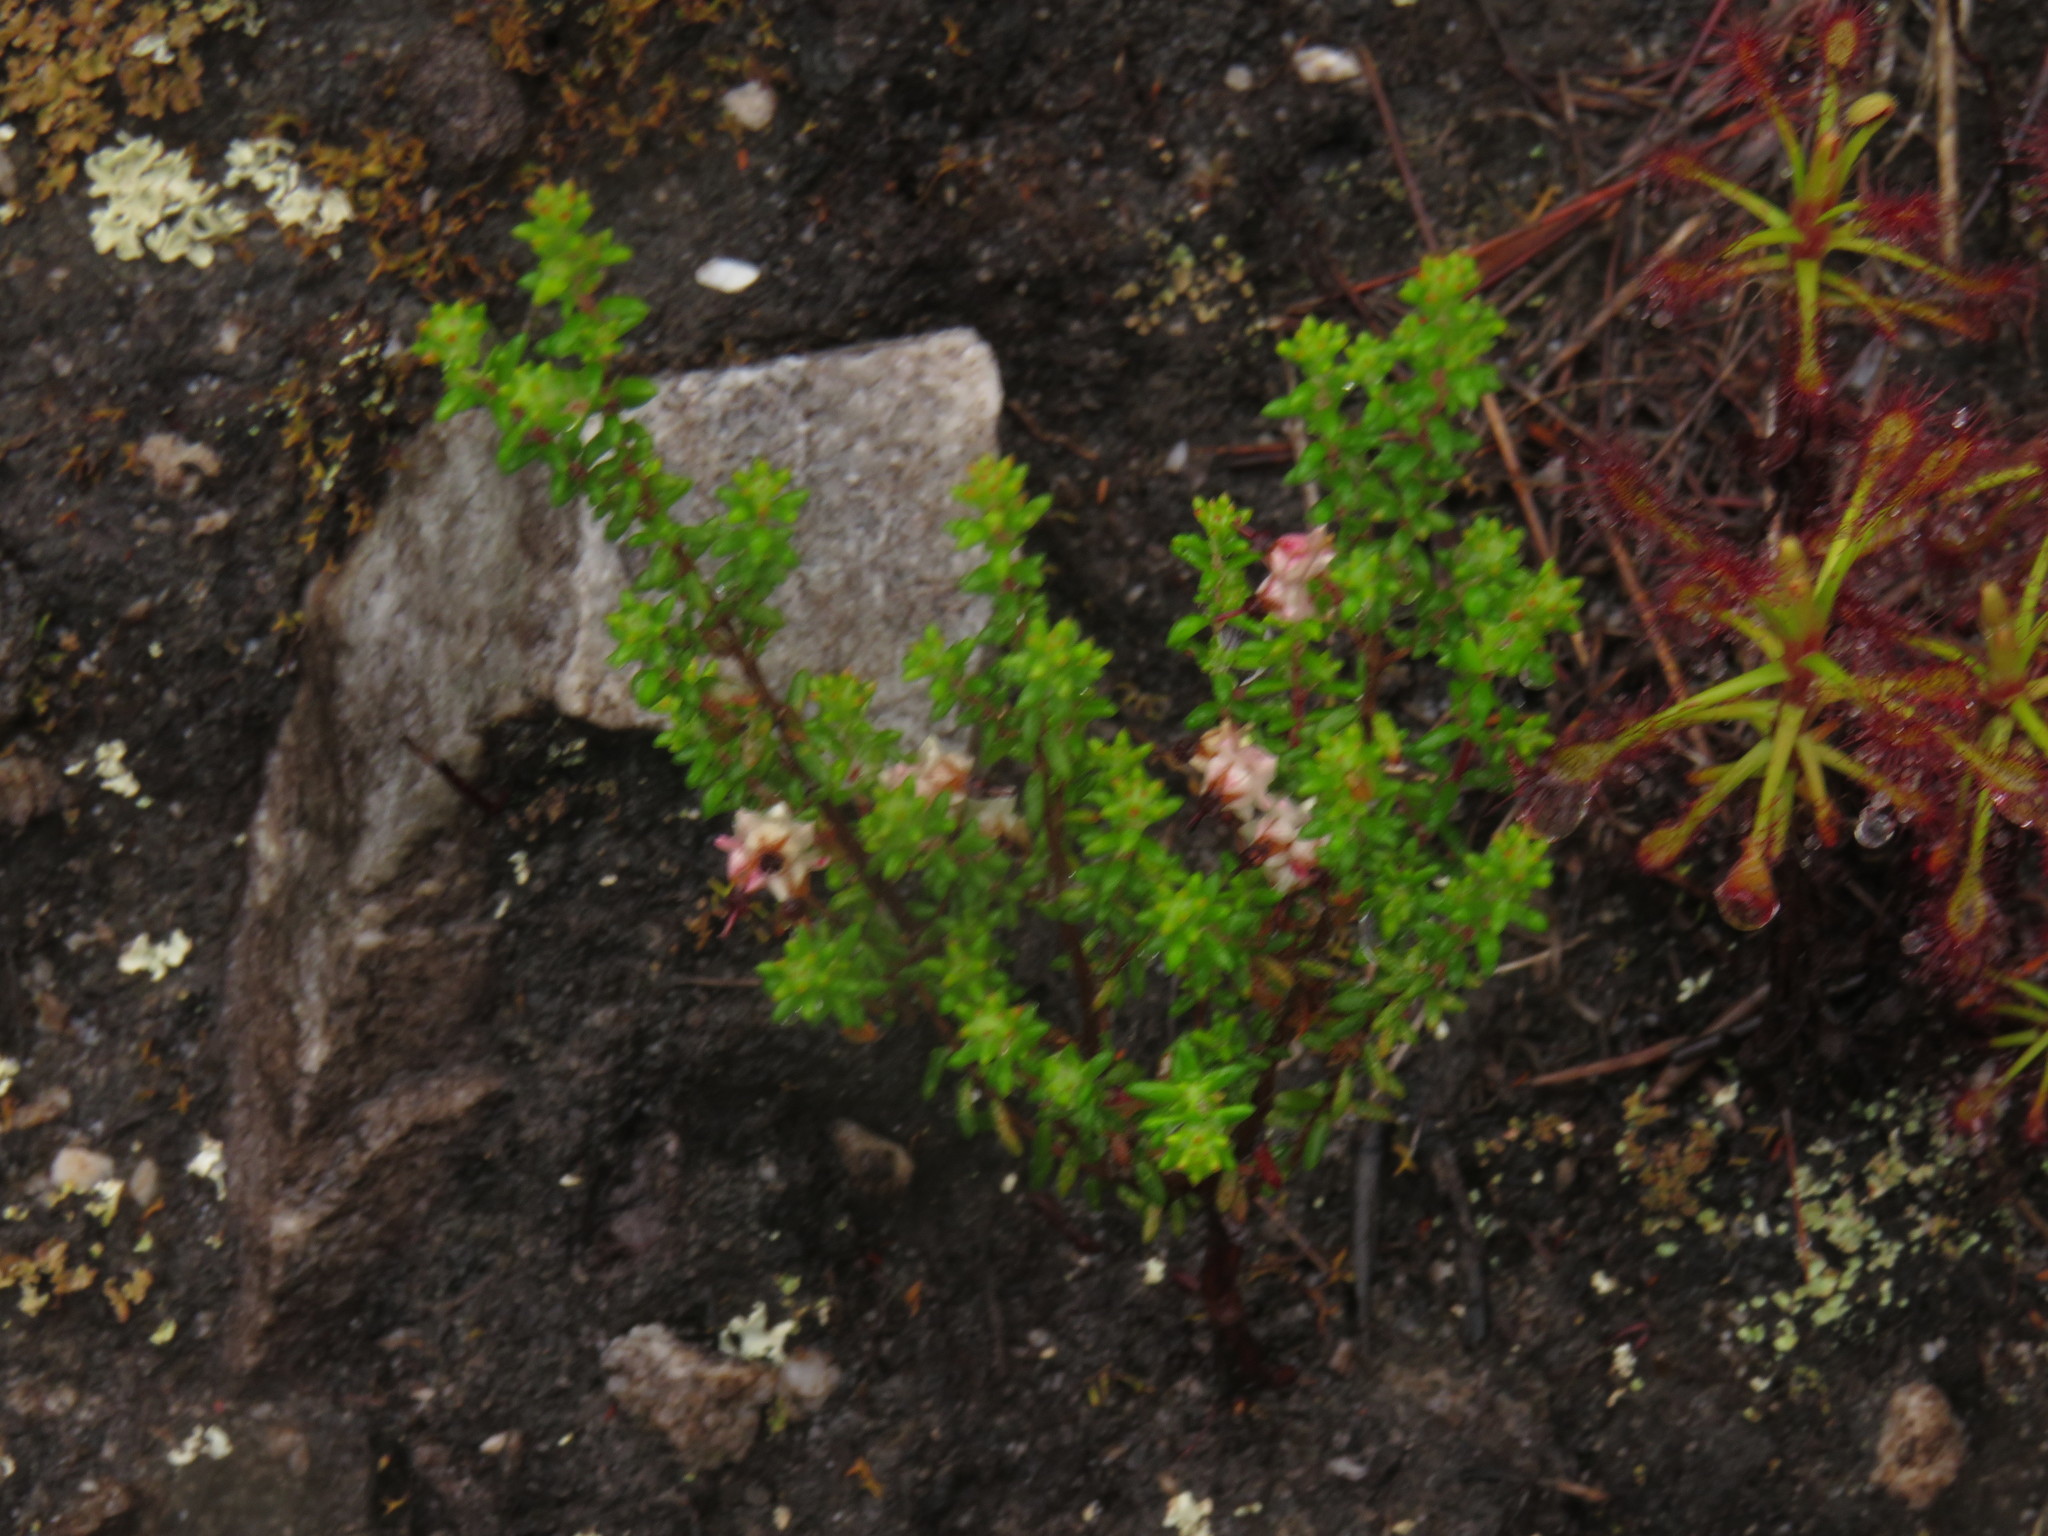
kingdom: Plantae
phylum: Tracheophyta
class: Magnoliopsida
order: Ericales
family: Ericaceae
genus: Erica
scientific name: Erica azaleifolia
